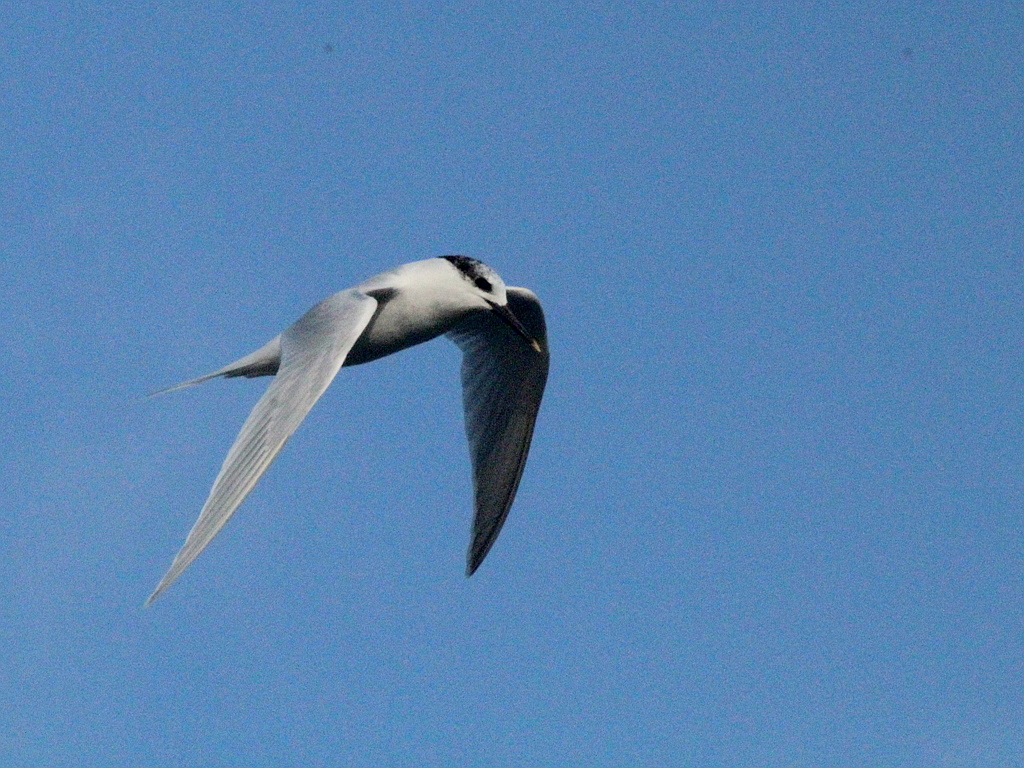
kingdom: Animalia
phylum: Chordata
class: Aves
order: Charadriiformes
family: Laridae
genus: Thalasseus
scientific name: Thalasseus sandvicensis
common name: Sandwich tern
